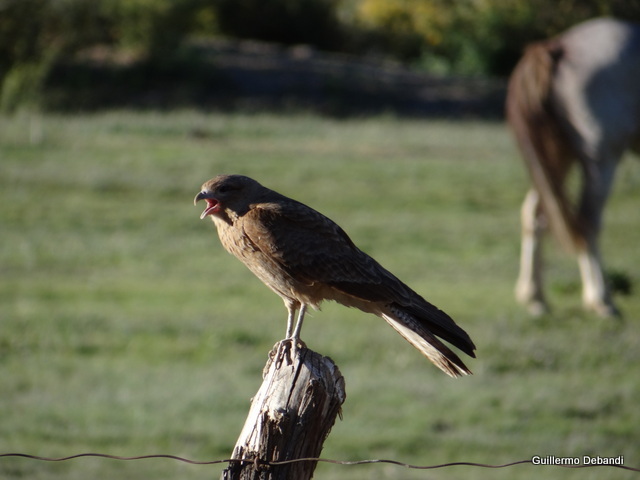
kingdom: Animalia
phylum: Chordata
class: Aves
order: Falconiformes
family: Falconidae
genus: Daptrius
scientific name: Daptrius
